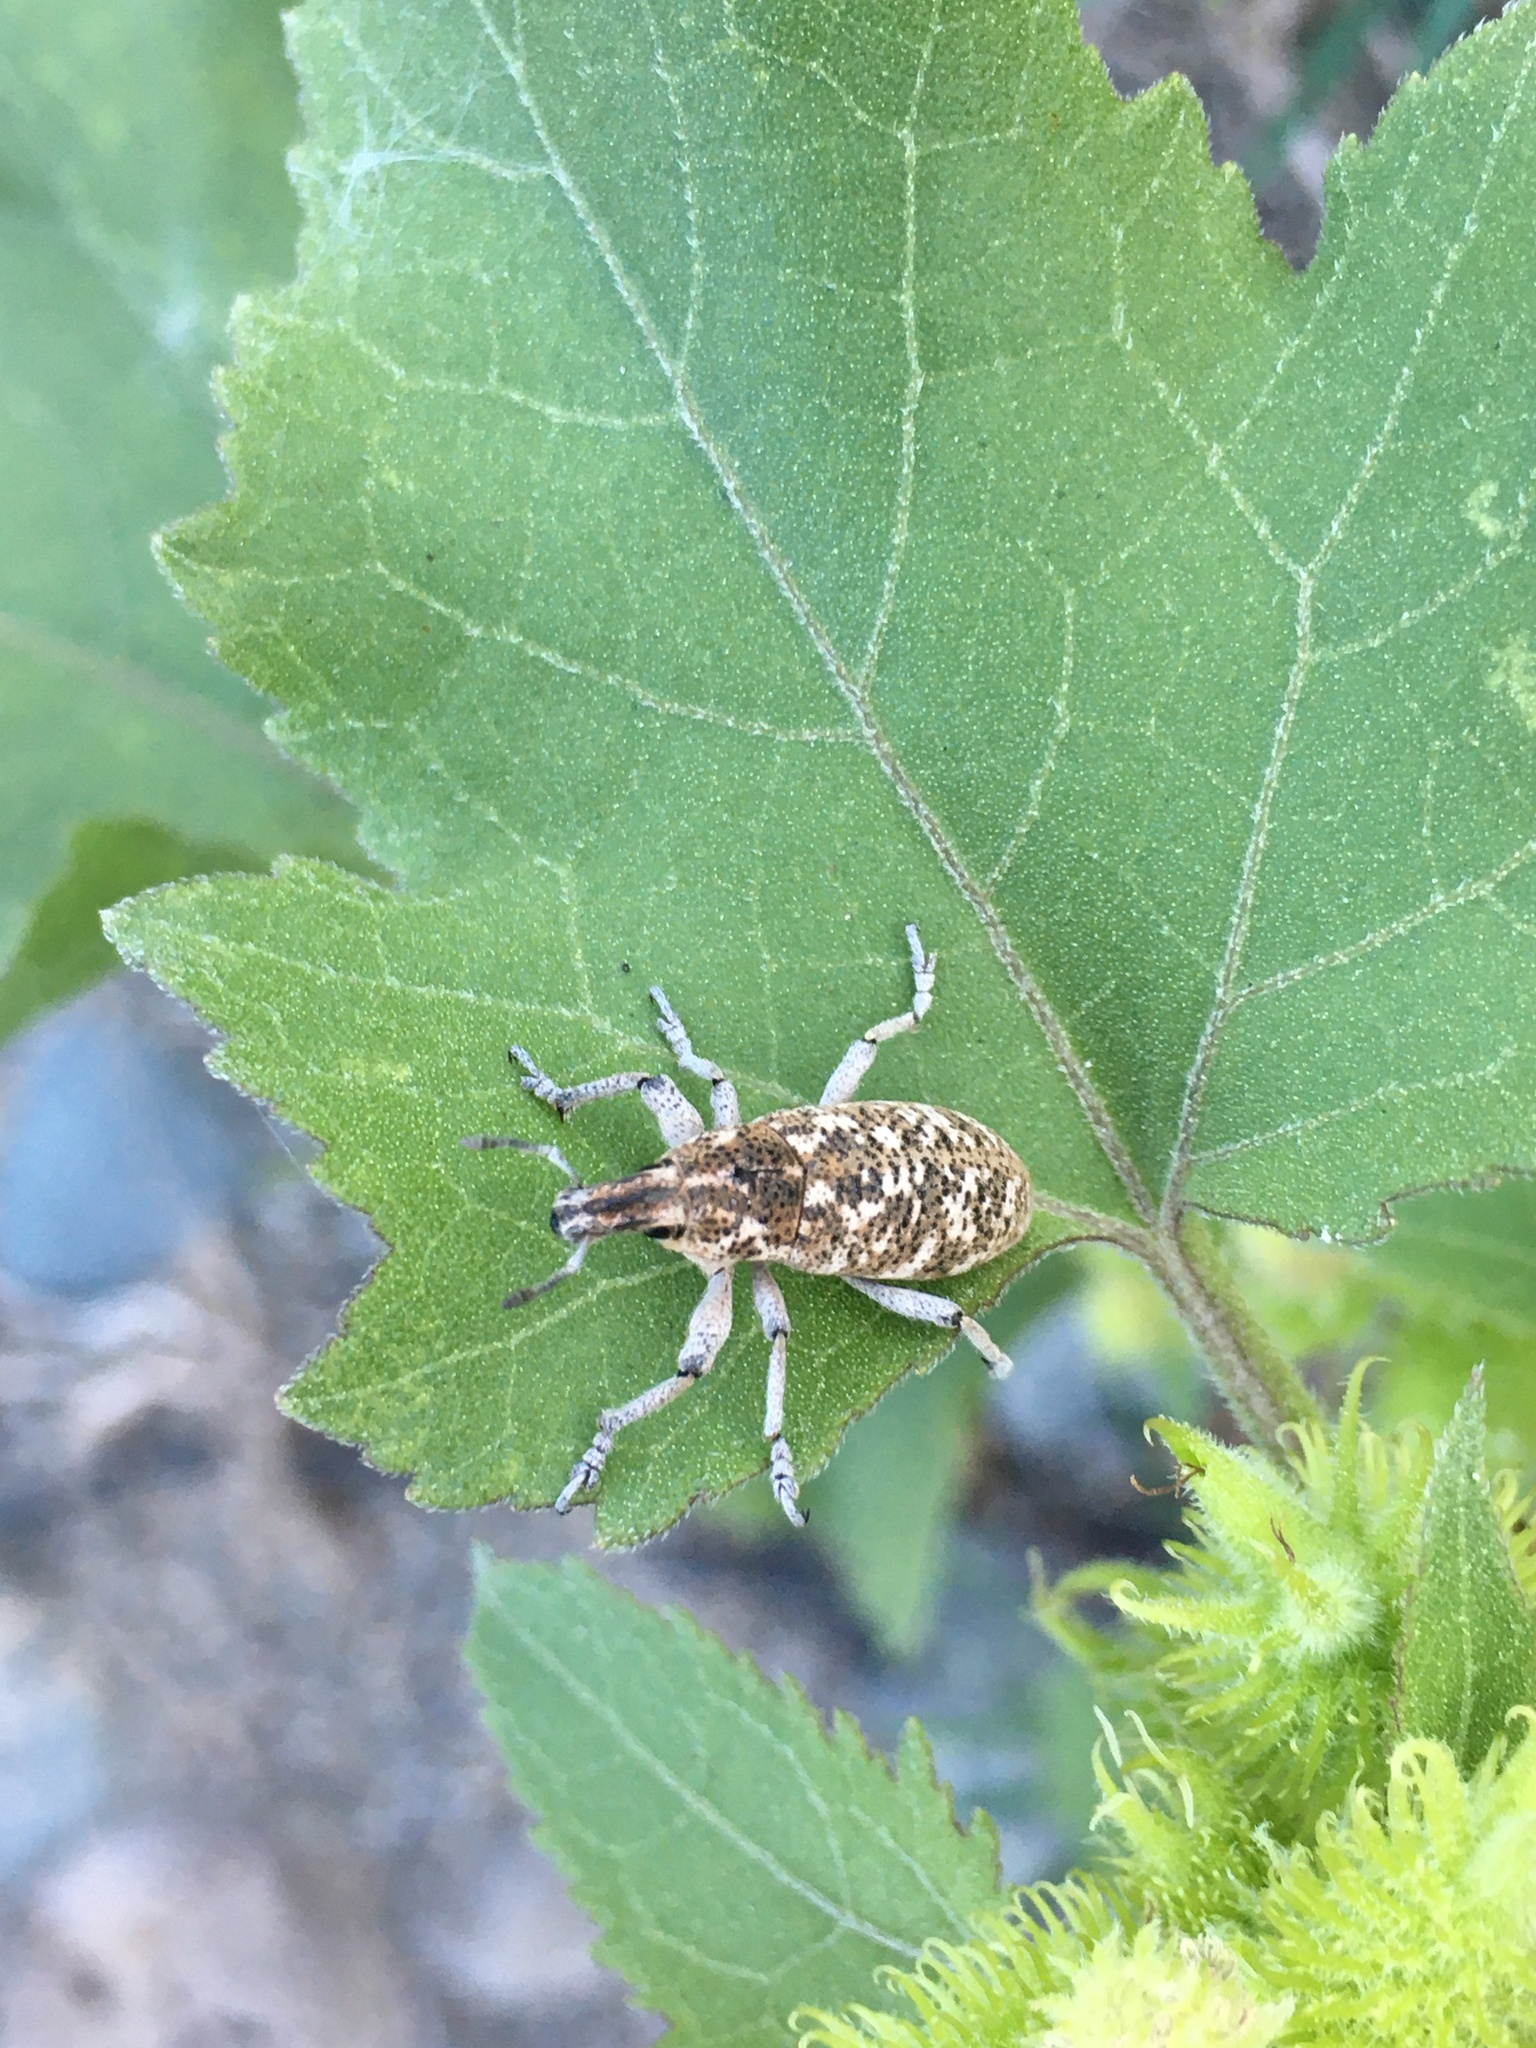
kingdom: Animalia
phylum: Arthropoda
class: Insecta
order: Coleoptera
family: Curculionidae
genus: Cleonus
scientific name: Cleonus achates
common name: Root weevil
